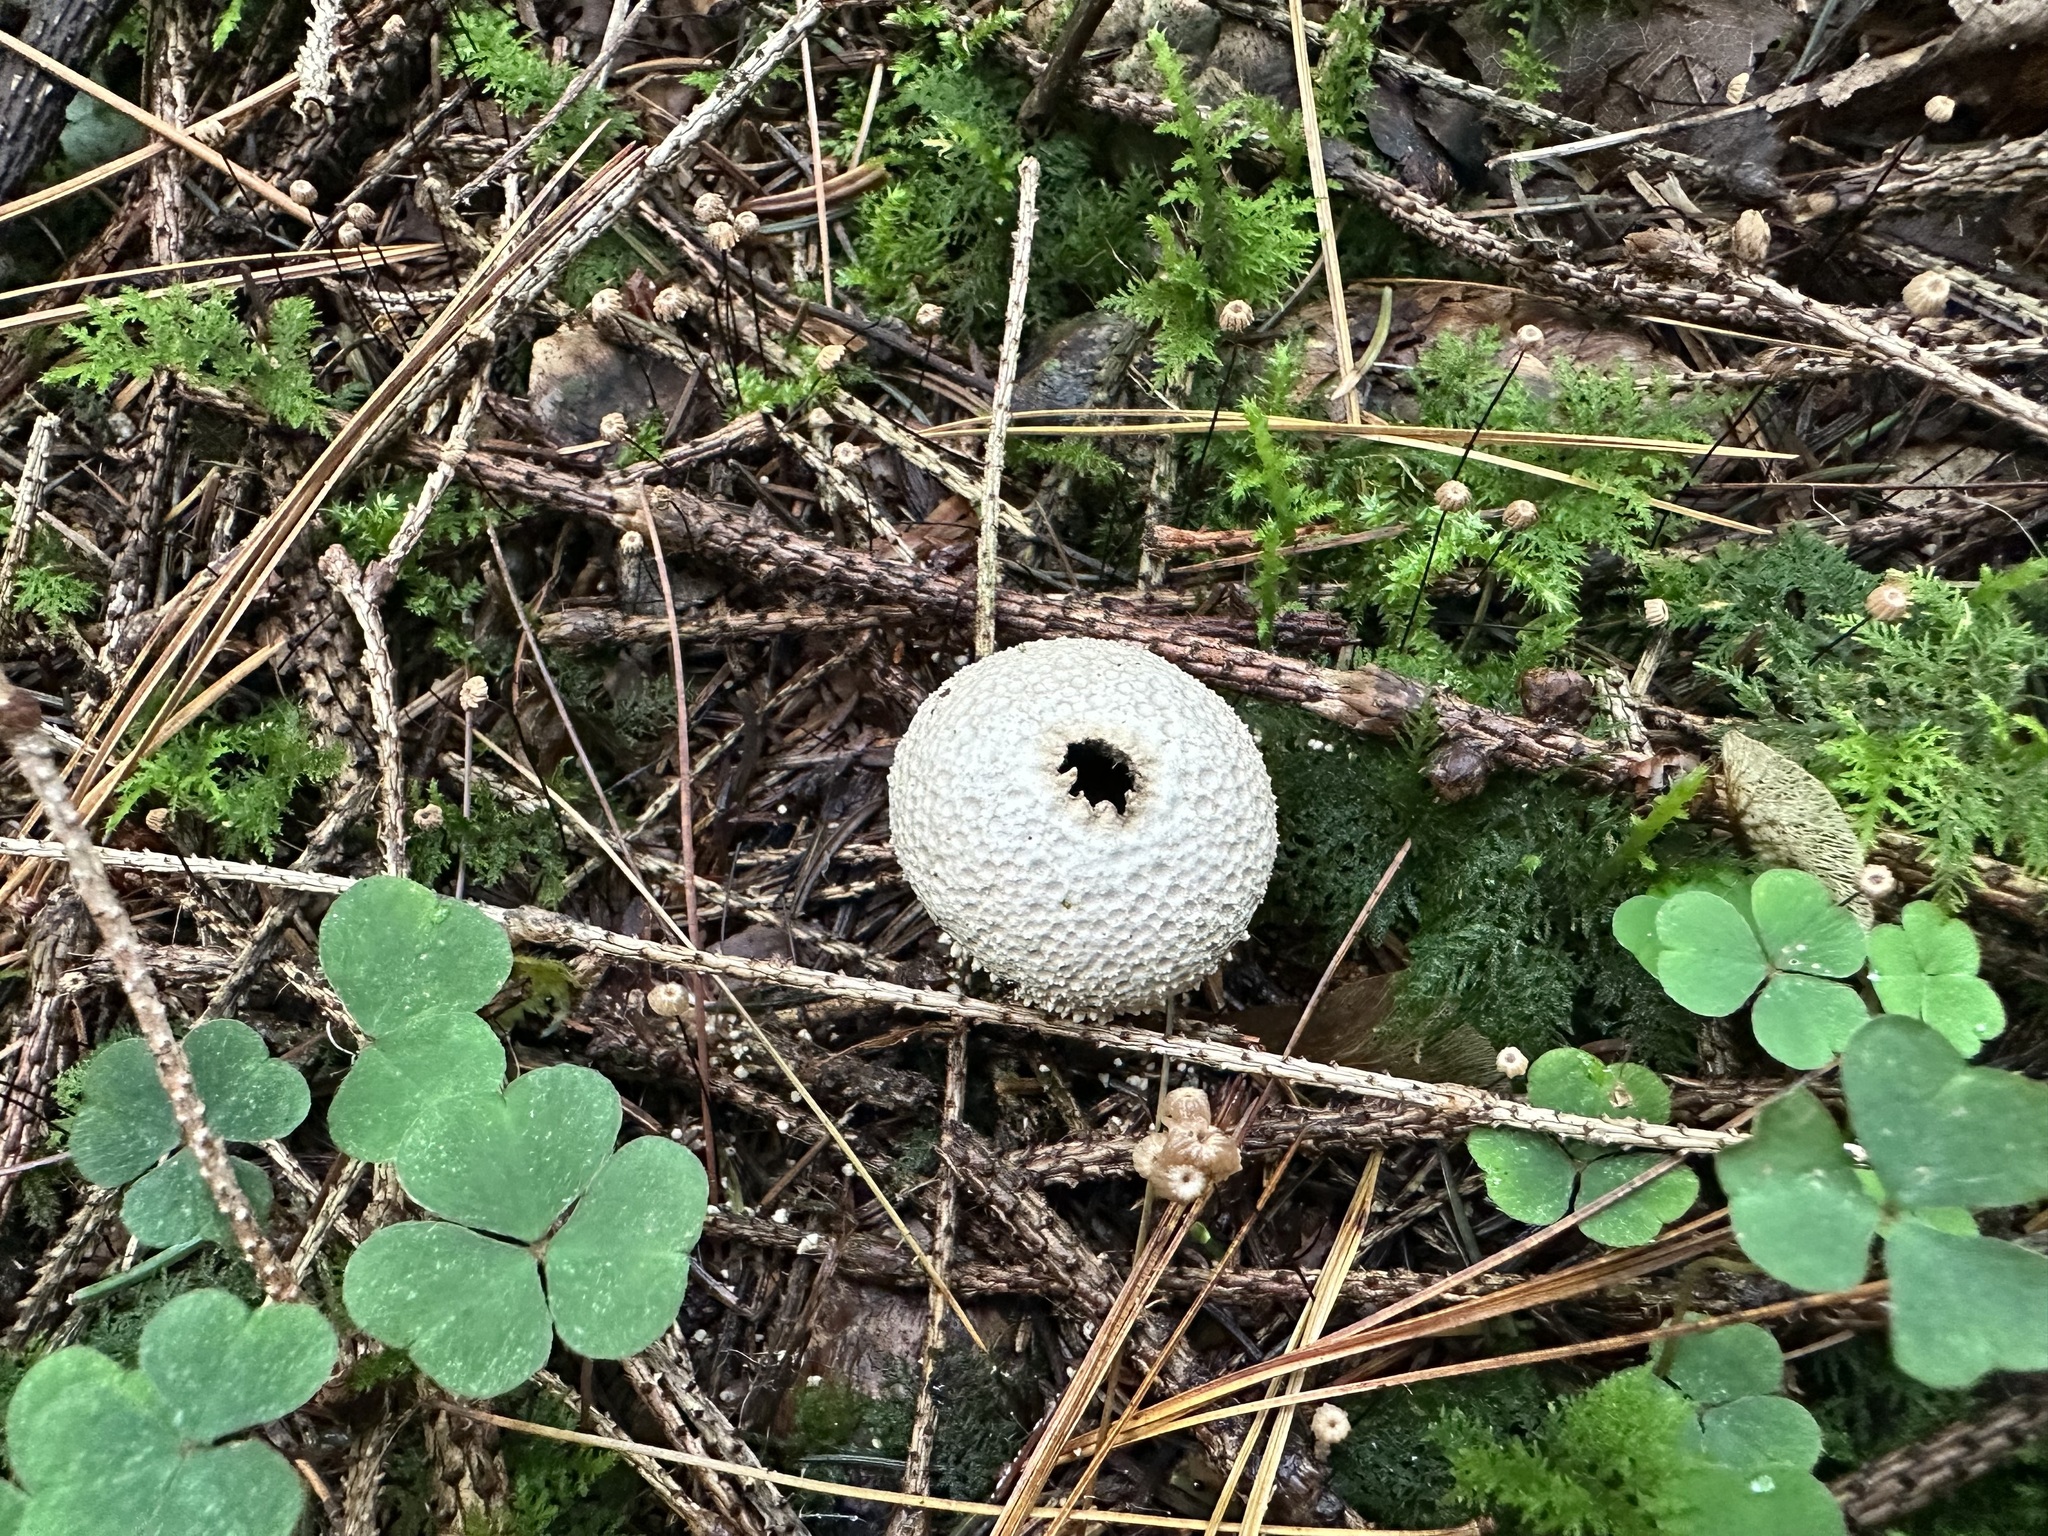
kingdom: Fungi
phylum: Basidiomycota
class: Agaricomycetes
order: Agaricales
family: Lycoperdaceae
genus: Lycoperdon
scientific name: Lycoperdon perlatum
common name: Common puffball
